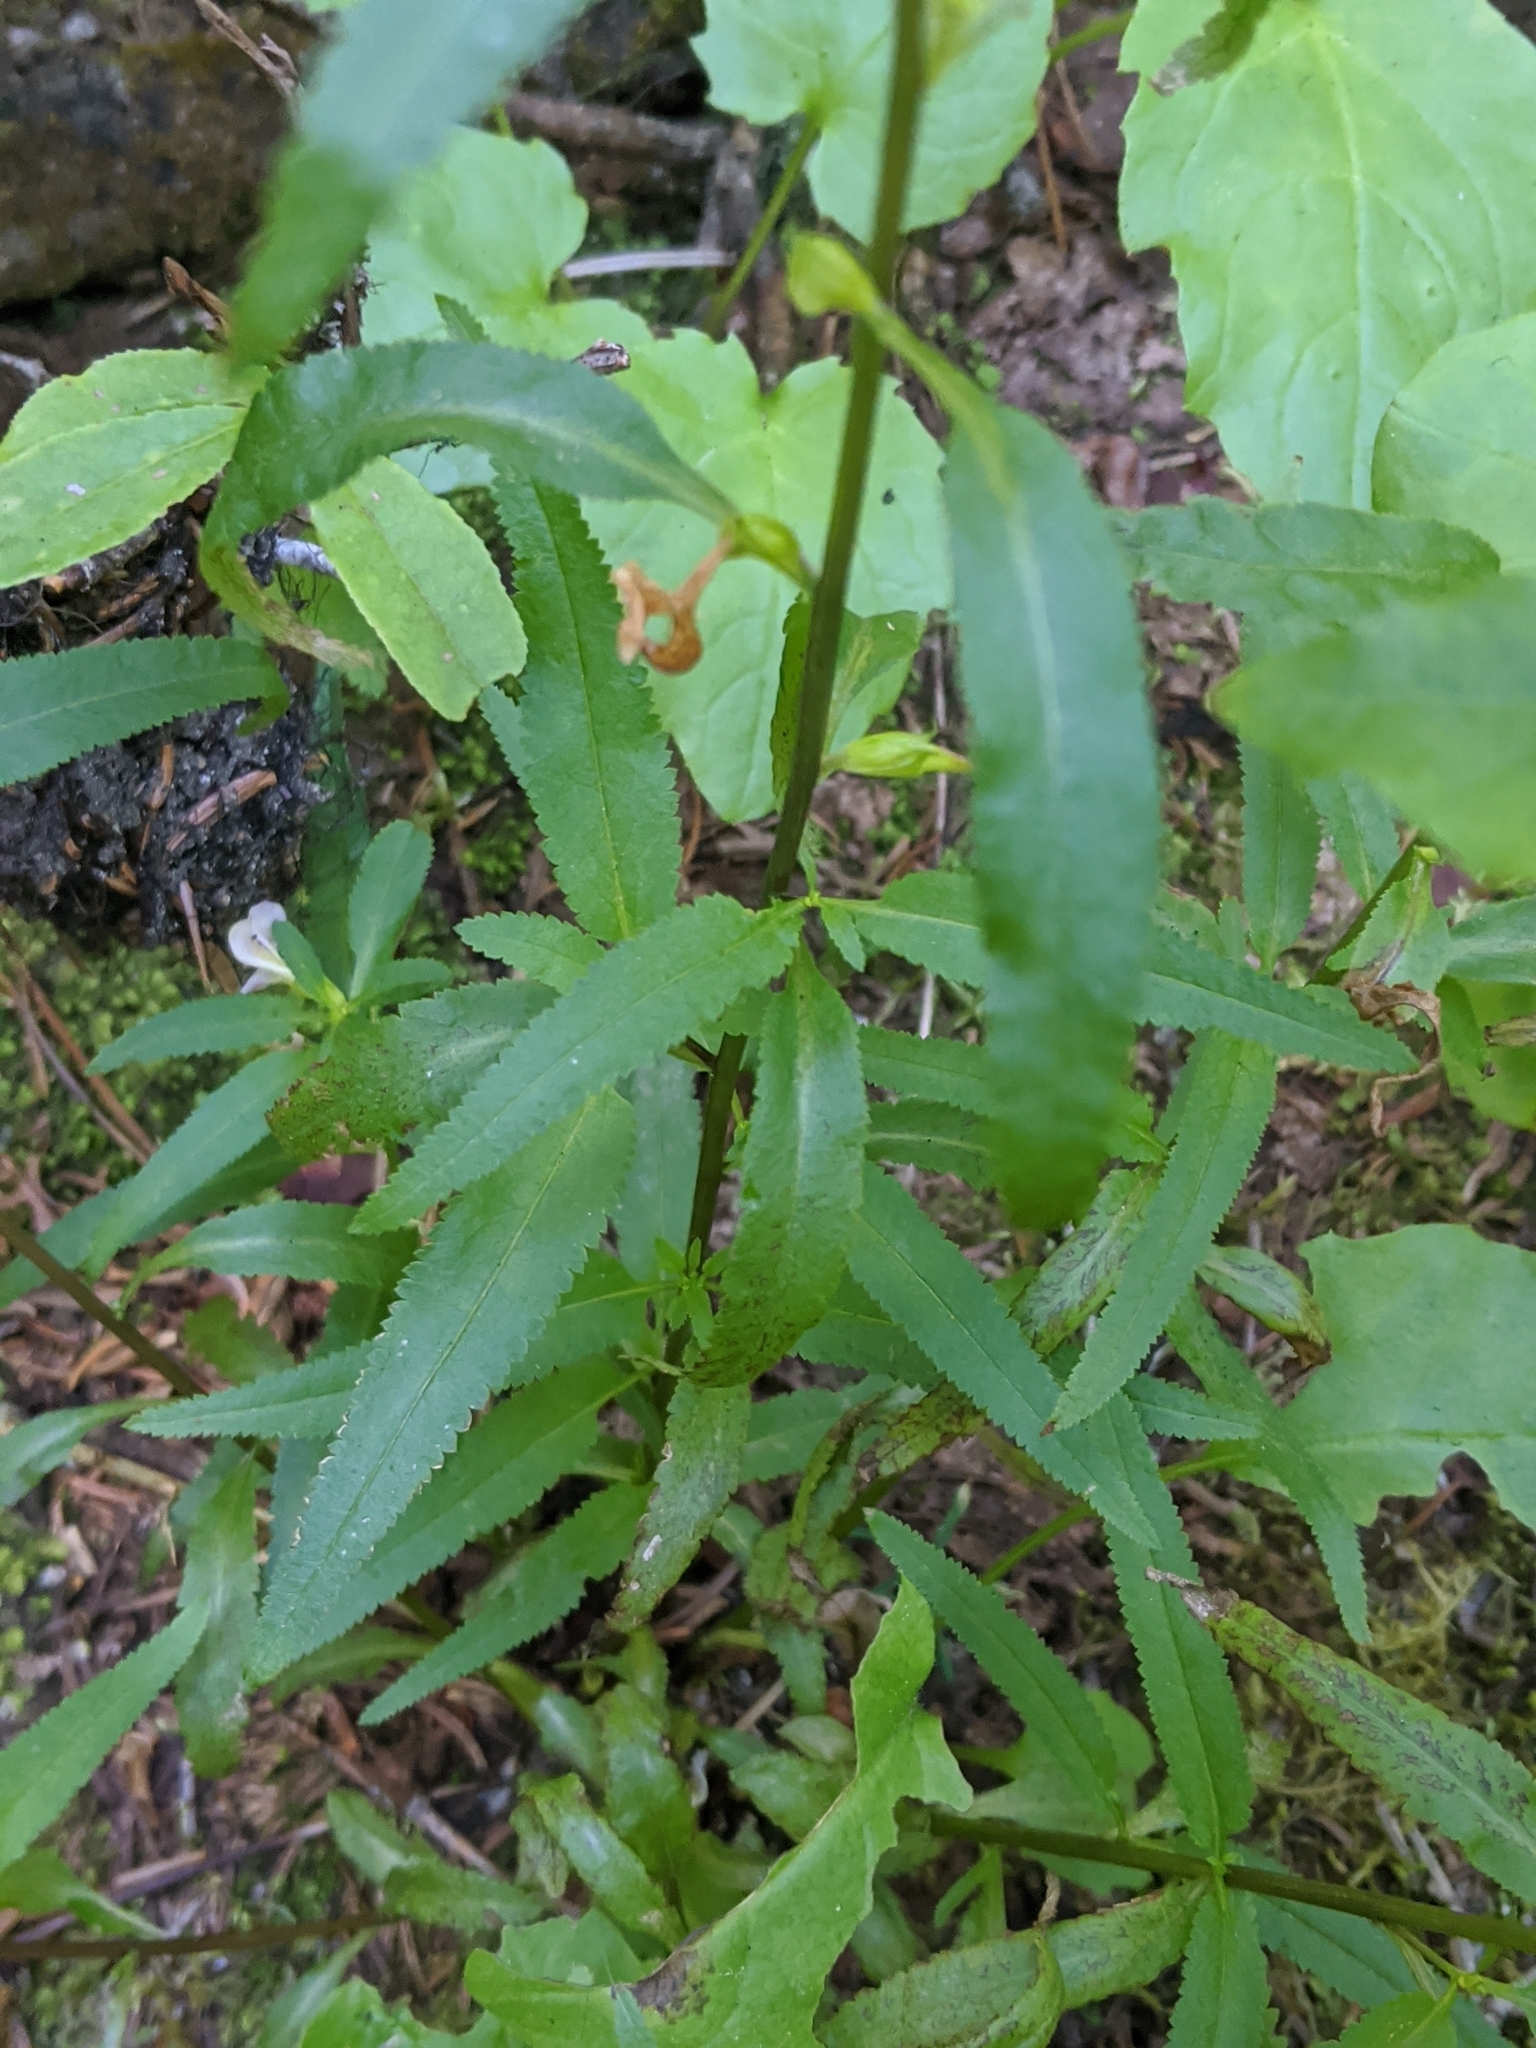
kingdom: Plantae
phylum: Tracheophyta
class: Magnoliopsida
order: Lamiales
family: Orobanchaceae
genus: Pedicularis
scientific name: Pedicularis racemosa
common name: Leafy lousewort
